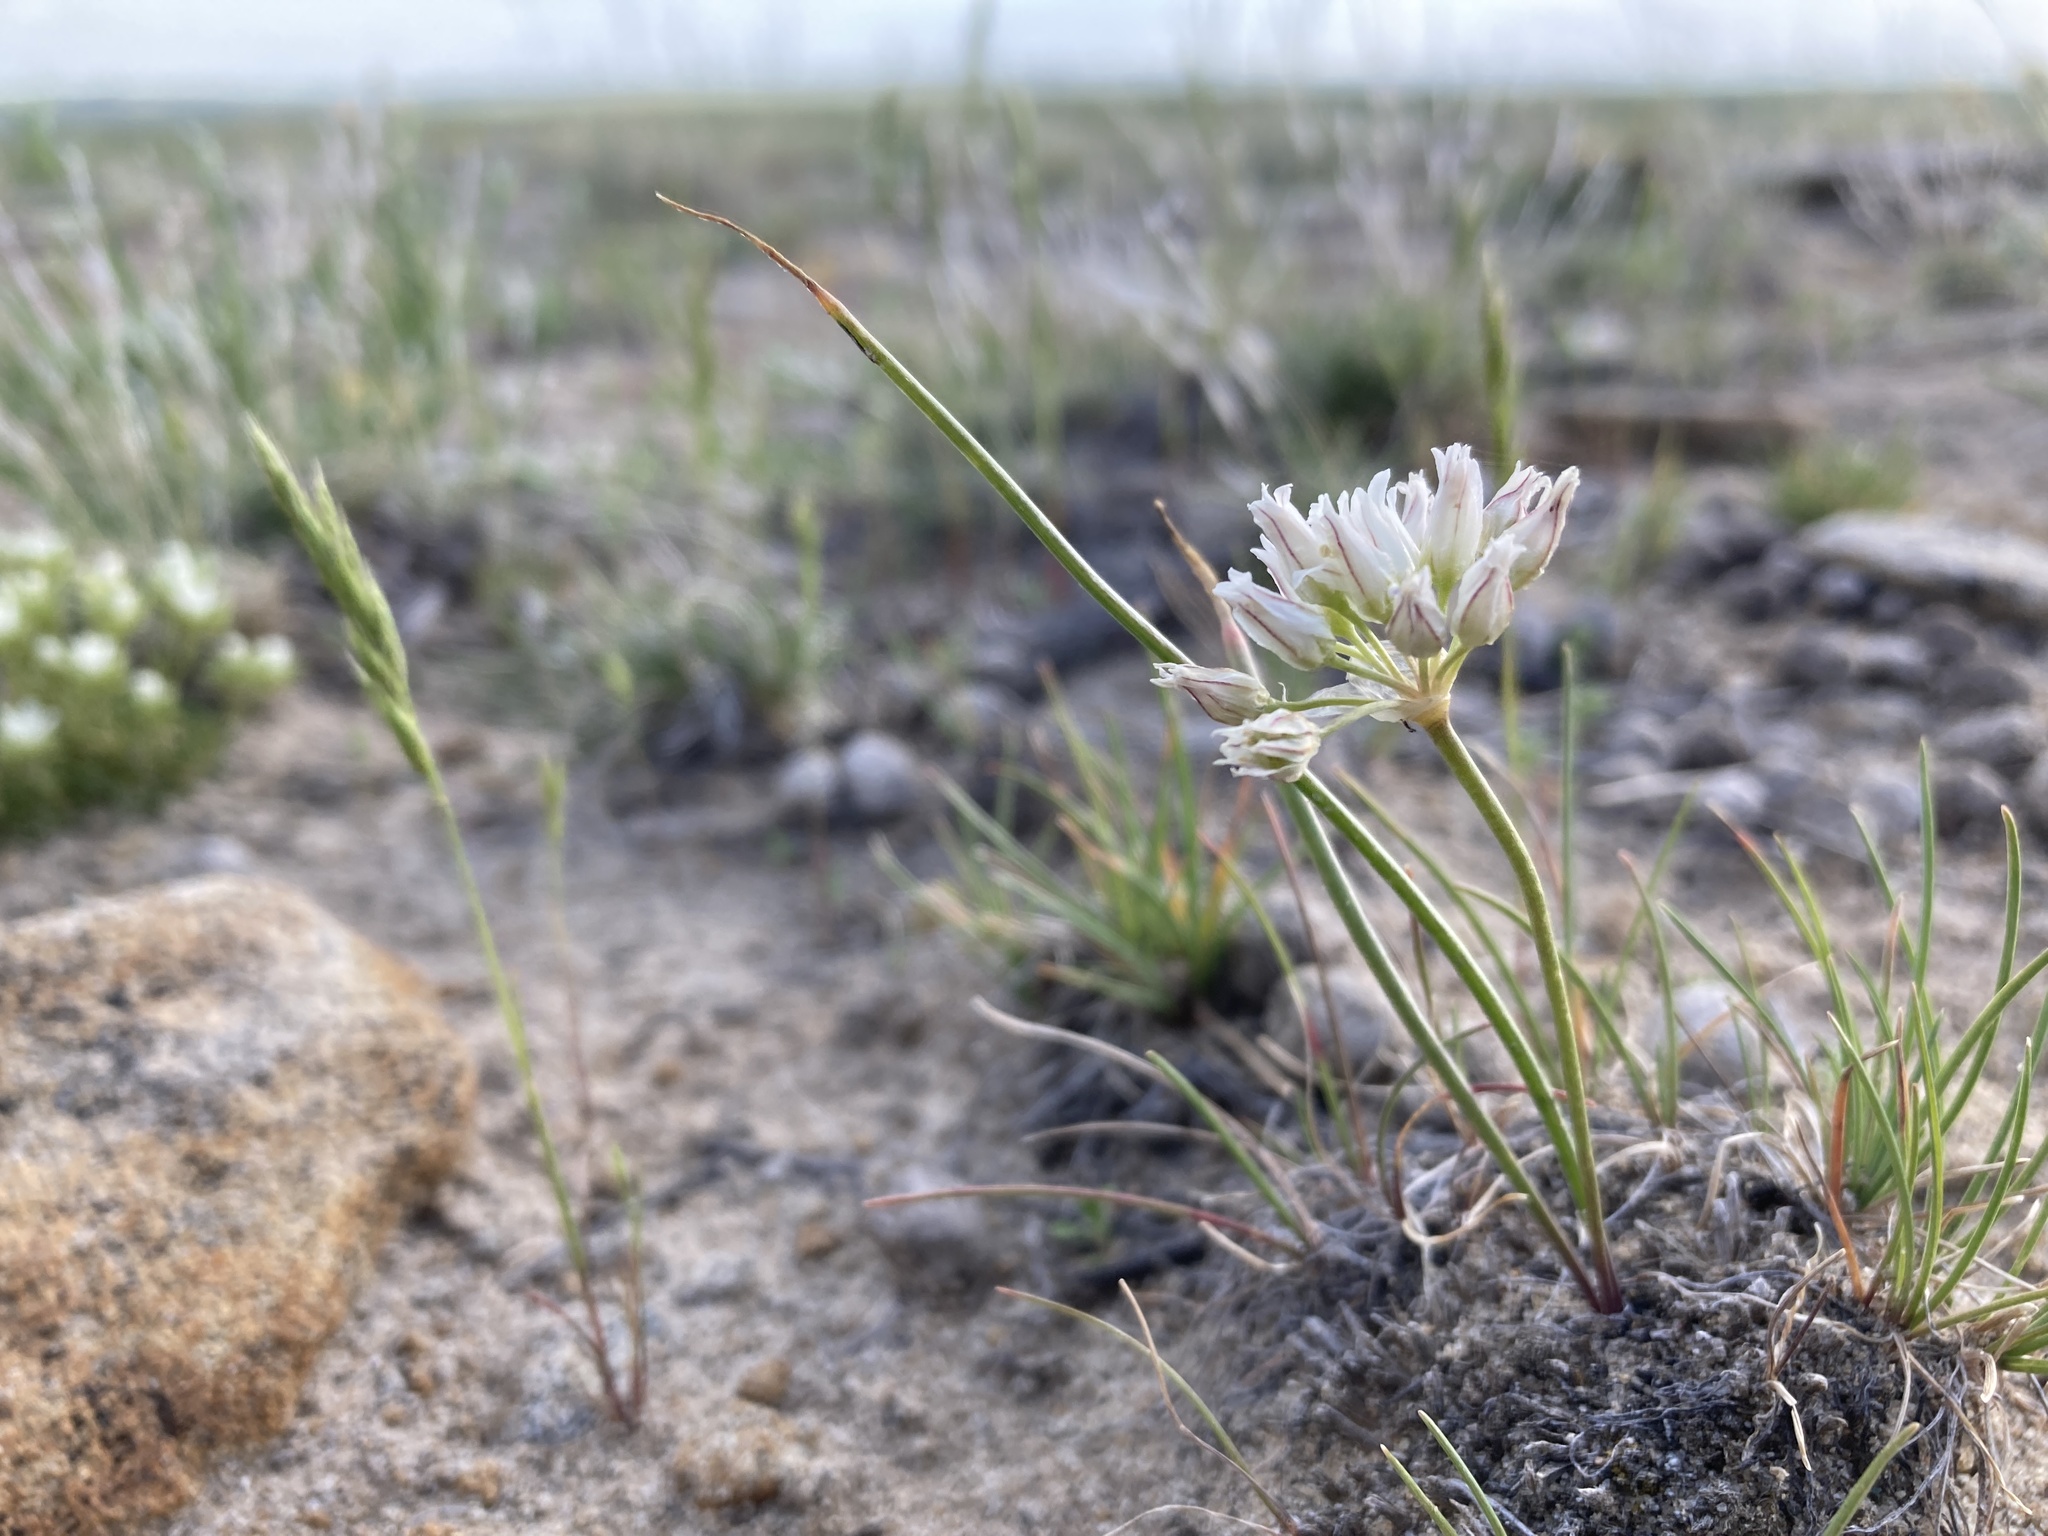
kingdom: Plantae
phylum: Tracheophyta
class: Liliopsida
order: Asparagales
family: Amaryllidaceae
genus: Allium
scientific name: Allium textile
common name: Prairie onion
